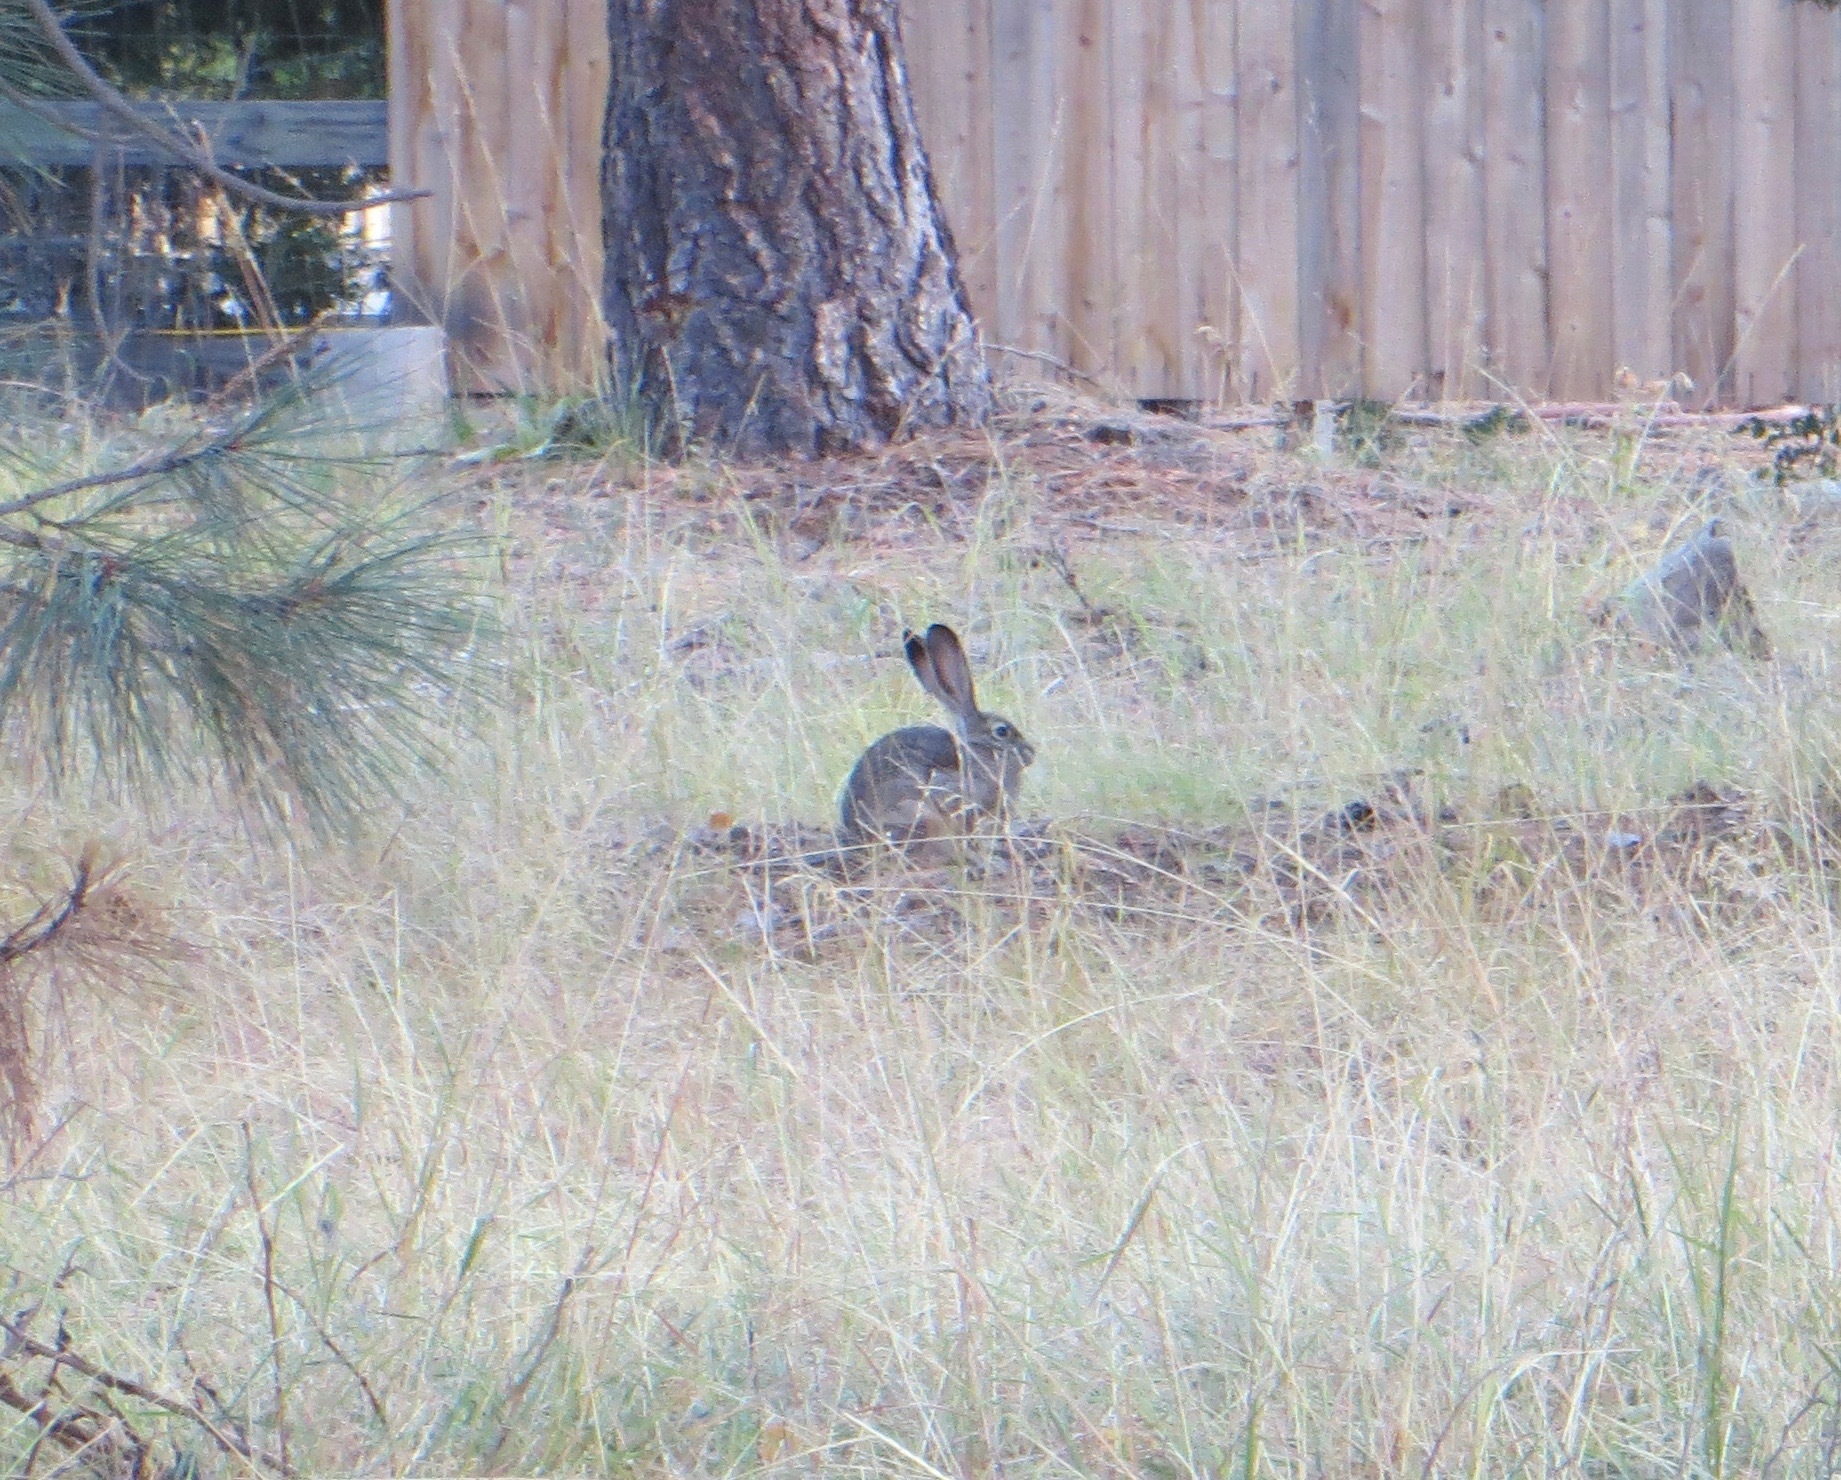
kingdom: Animalia
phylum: Chordata
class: Mammalia
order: Lagomorpha
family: Leporidae
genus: Lepus
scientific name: Lepus californicus
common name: Black-tailed jackrabbit
